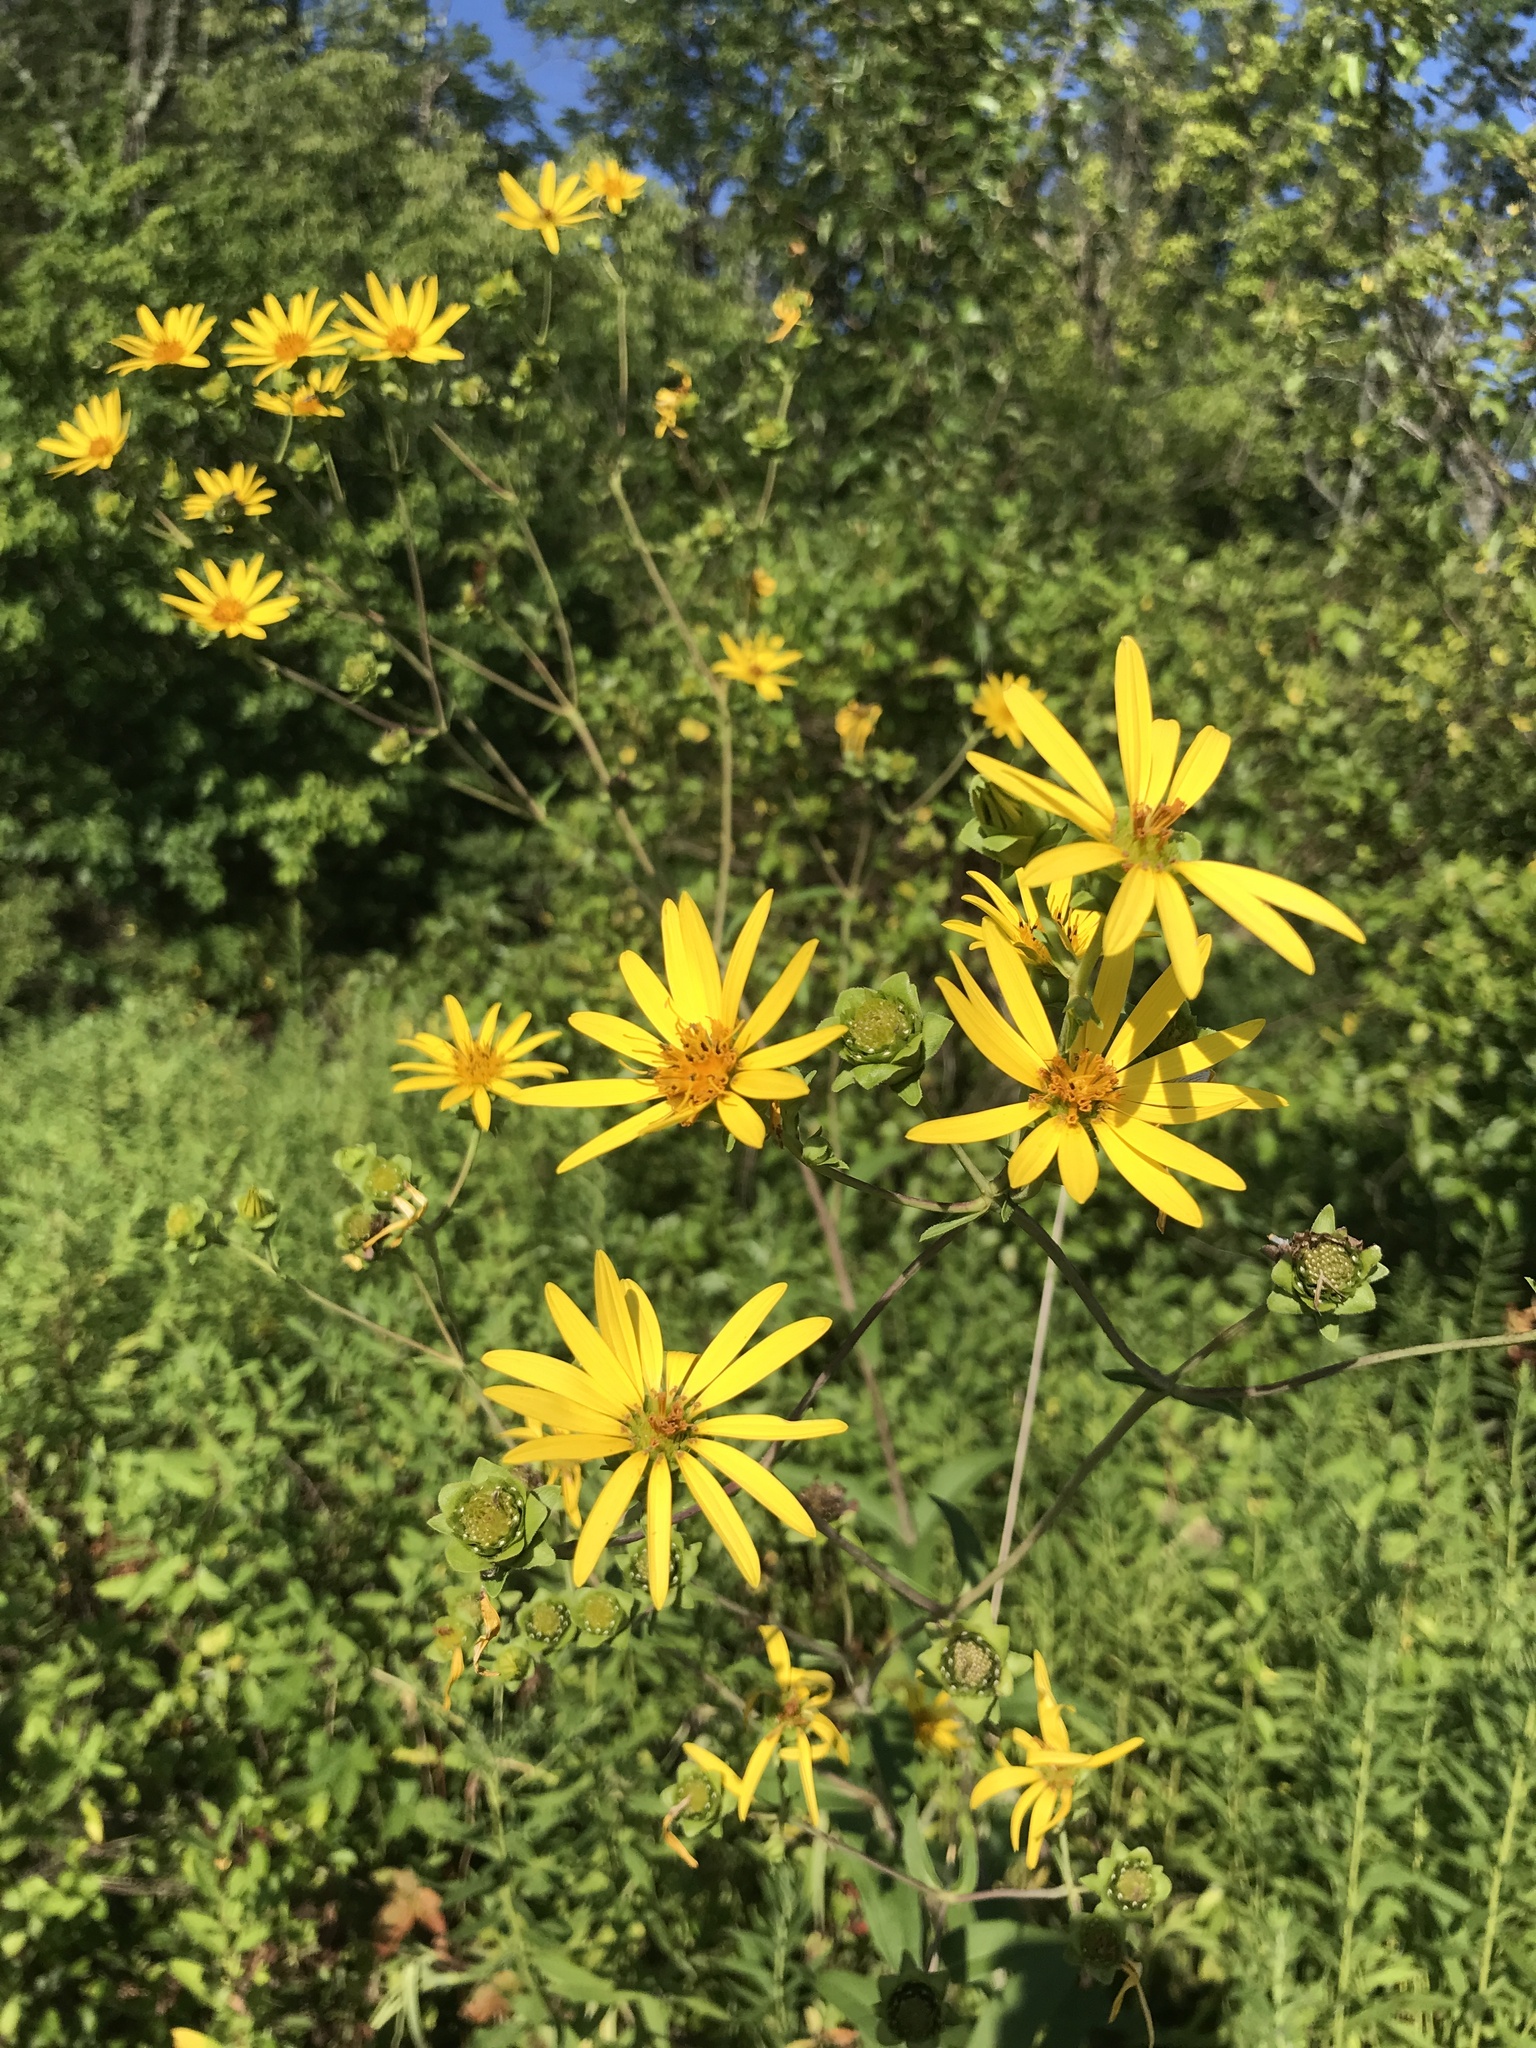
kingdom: Plantae
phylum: Tracheophyta
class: Magnoliopsida
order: Asterales
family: Asteraceae
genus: Silphium
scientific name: Silphium asteriscus
